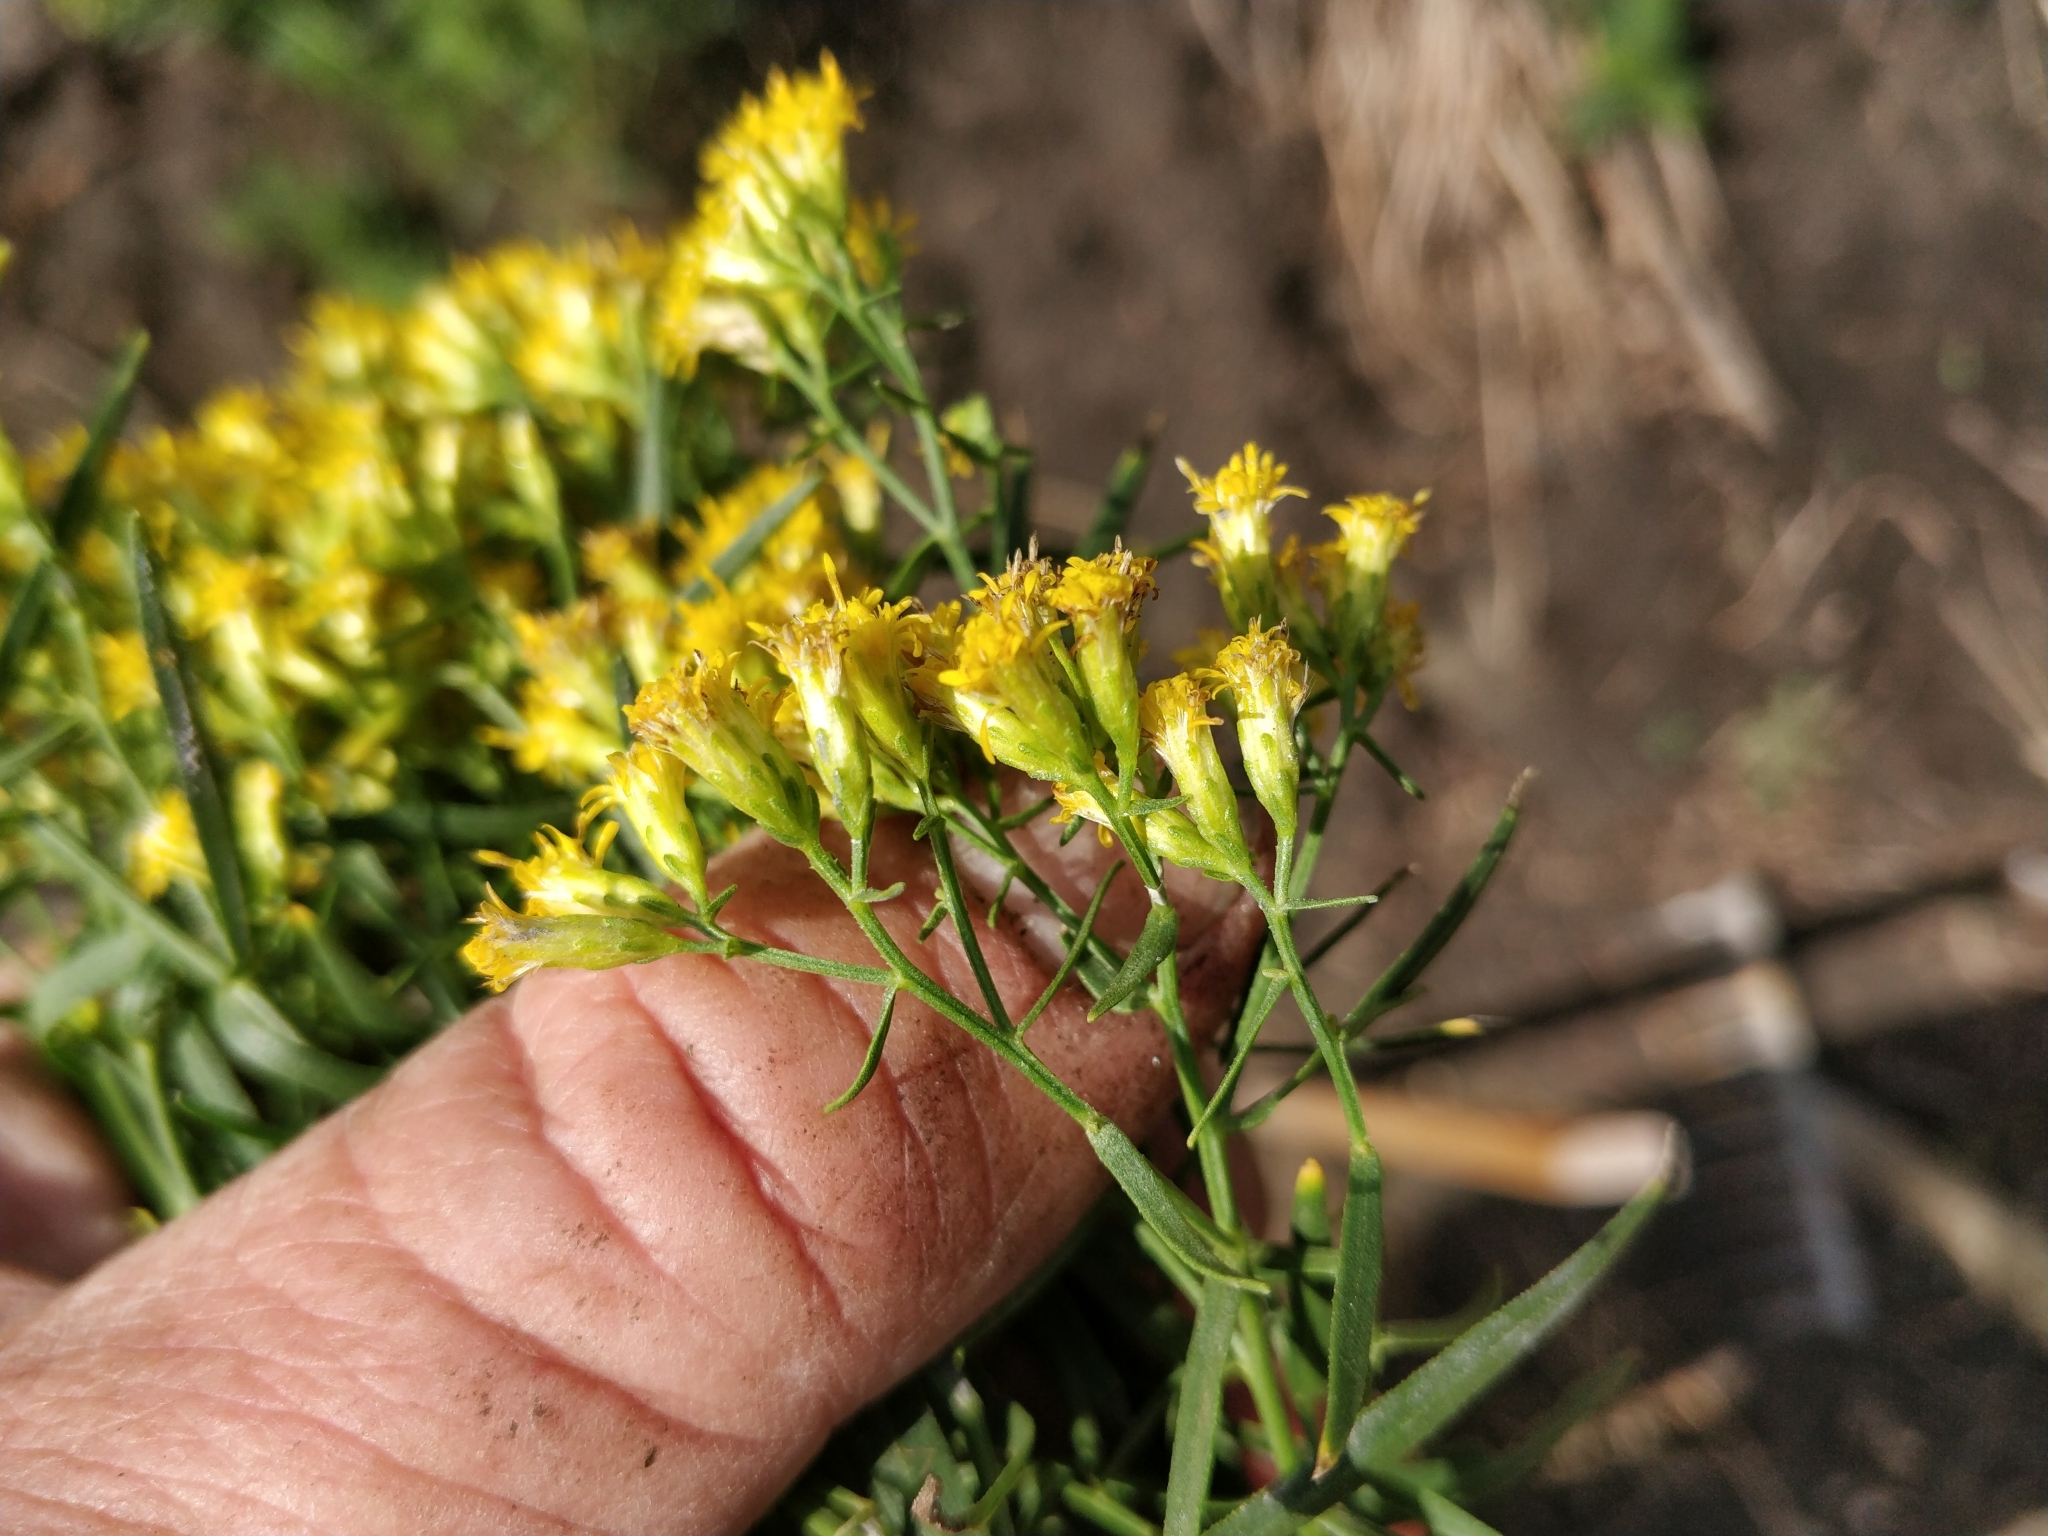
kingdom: Plantae
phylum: Tracheophyta
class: Magnoliopsida
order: Asterales
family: Asteraceae
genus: Euthamia
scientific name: Euthamia graminifolia
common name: Common goldentop
